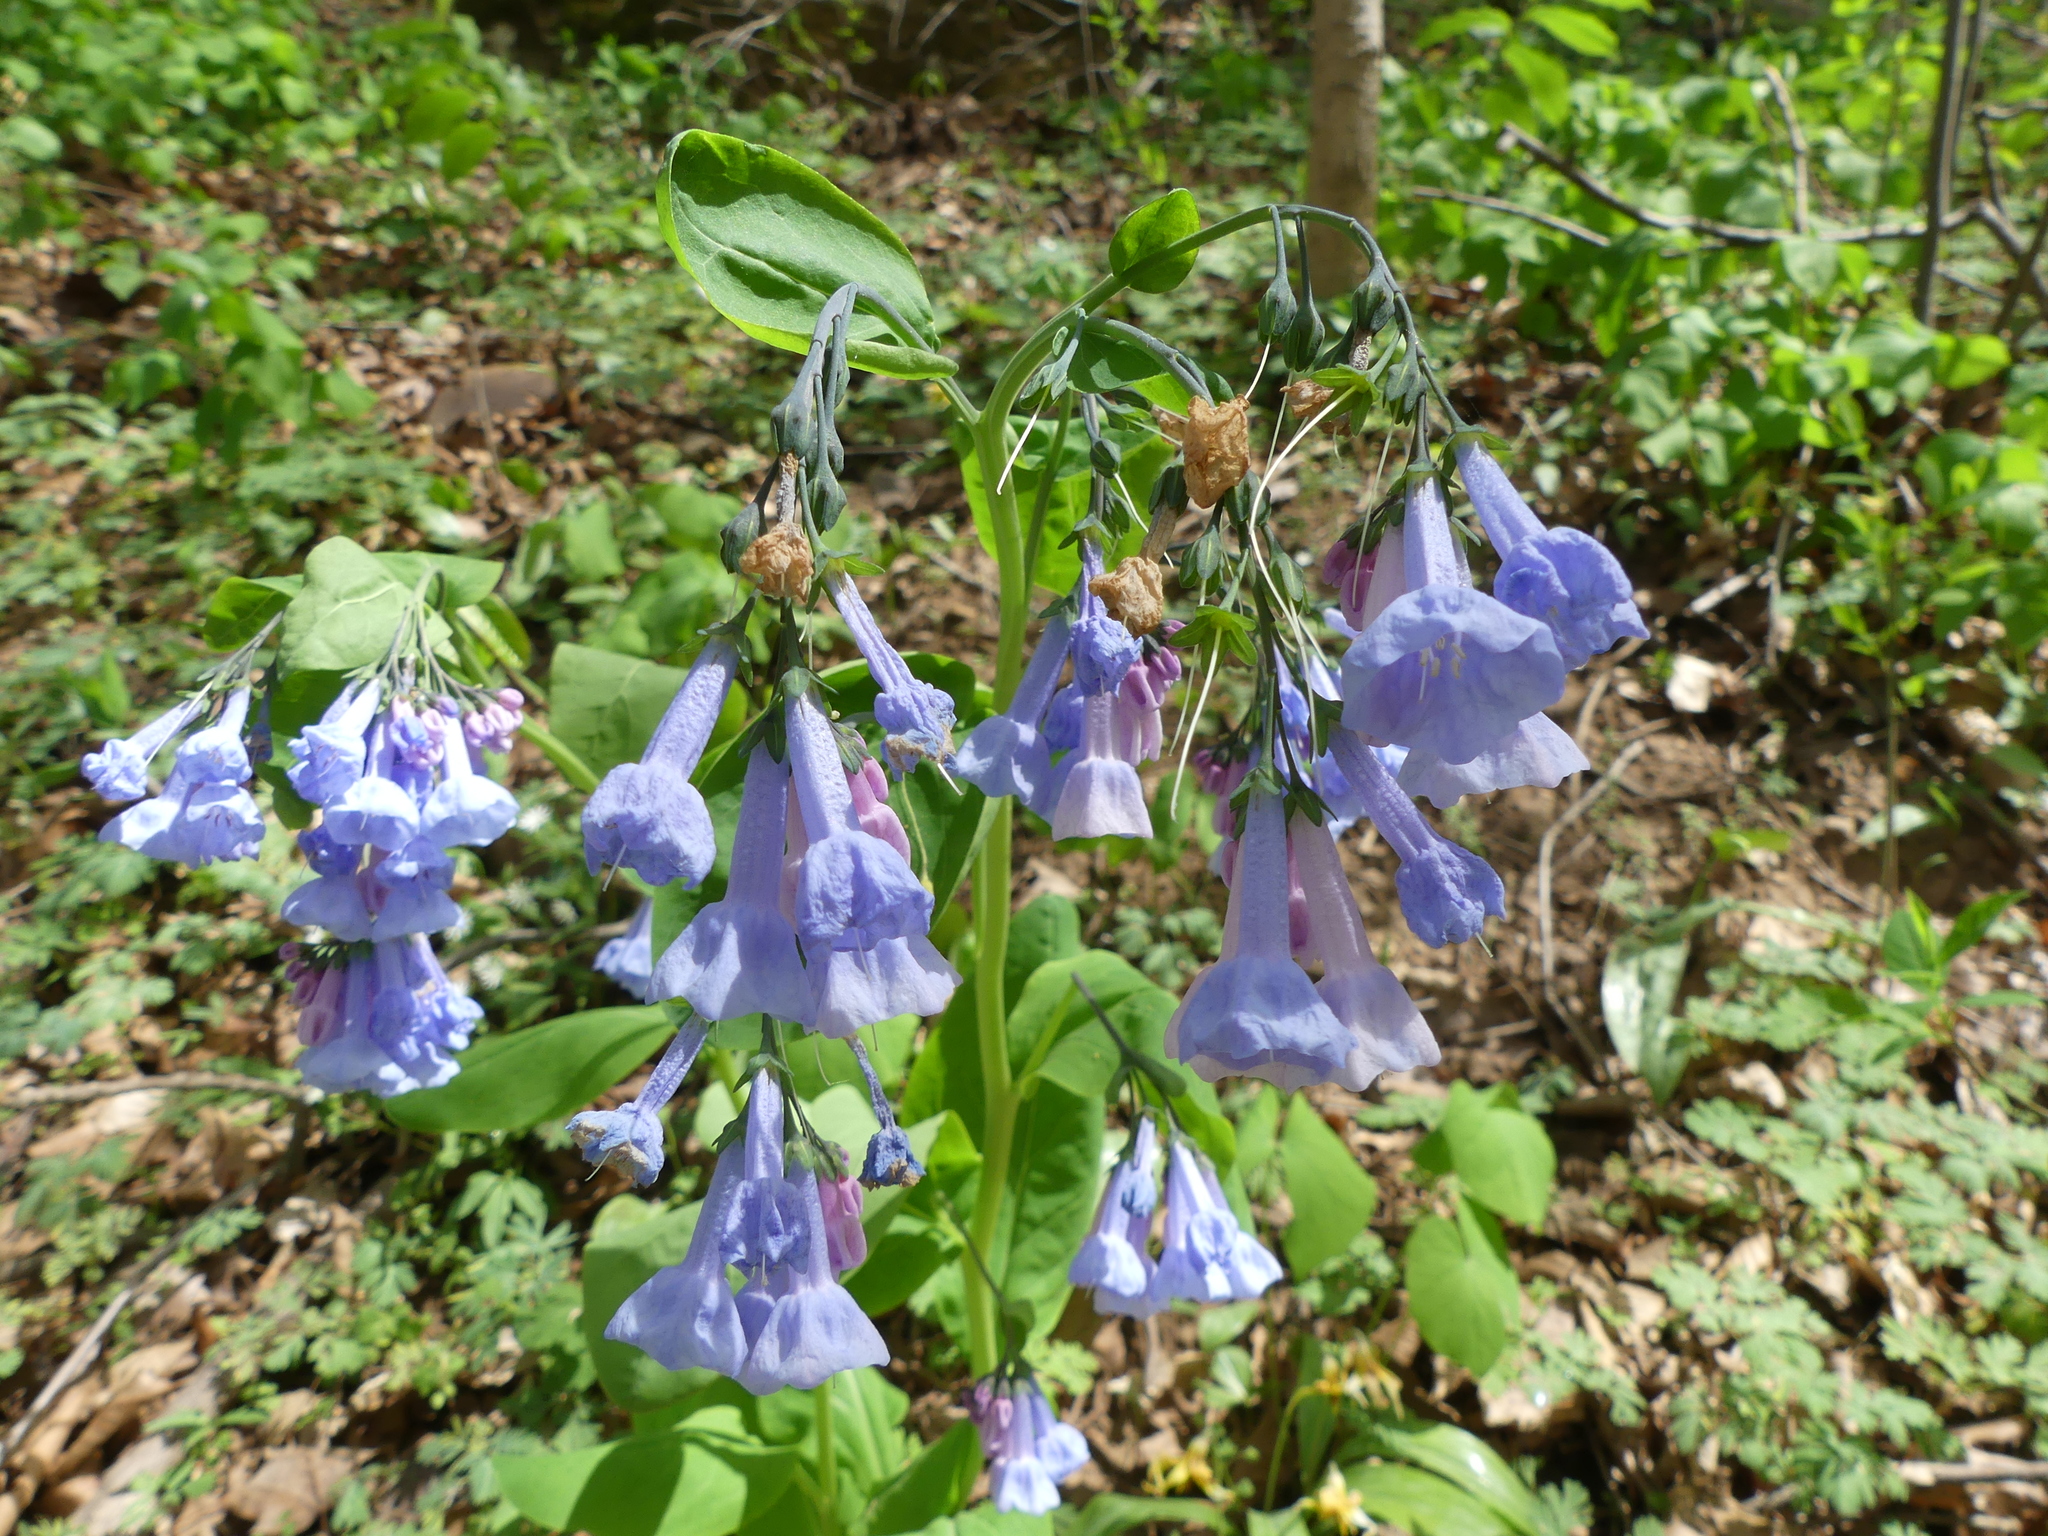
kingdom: Plantae
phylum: Tracheophyta
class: Magnoliopsida
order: Boraginales
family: Boraginaceae
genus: Mertensia
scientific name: Mertensia virginica
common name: Virginia bluebells
